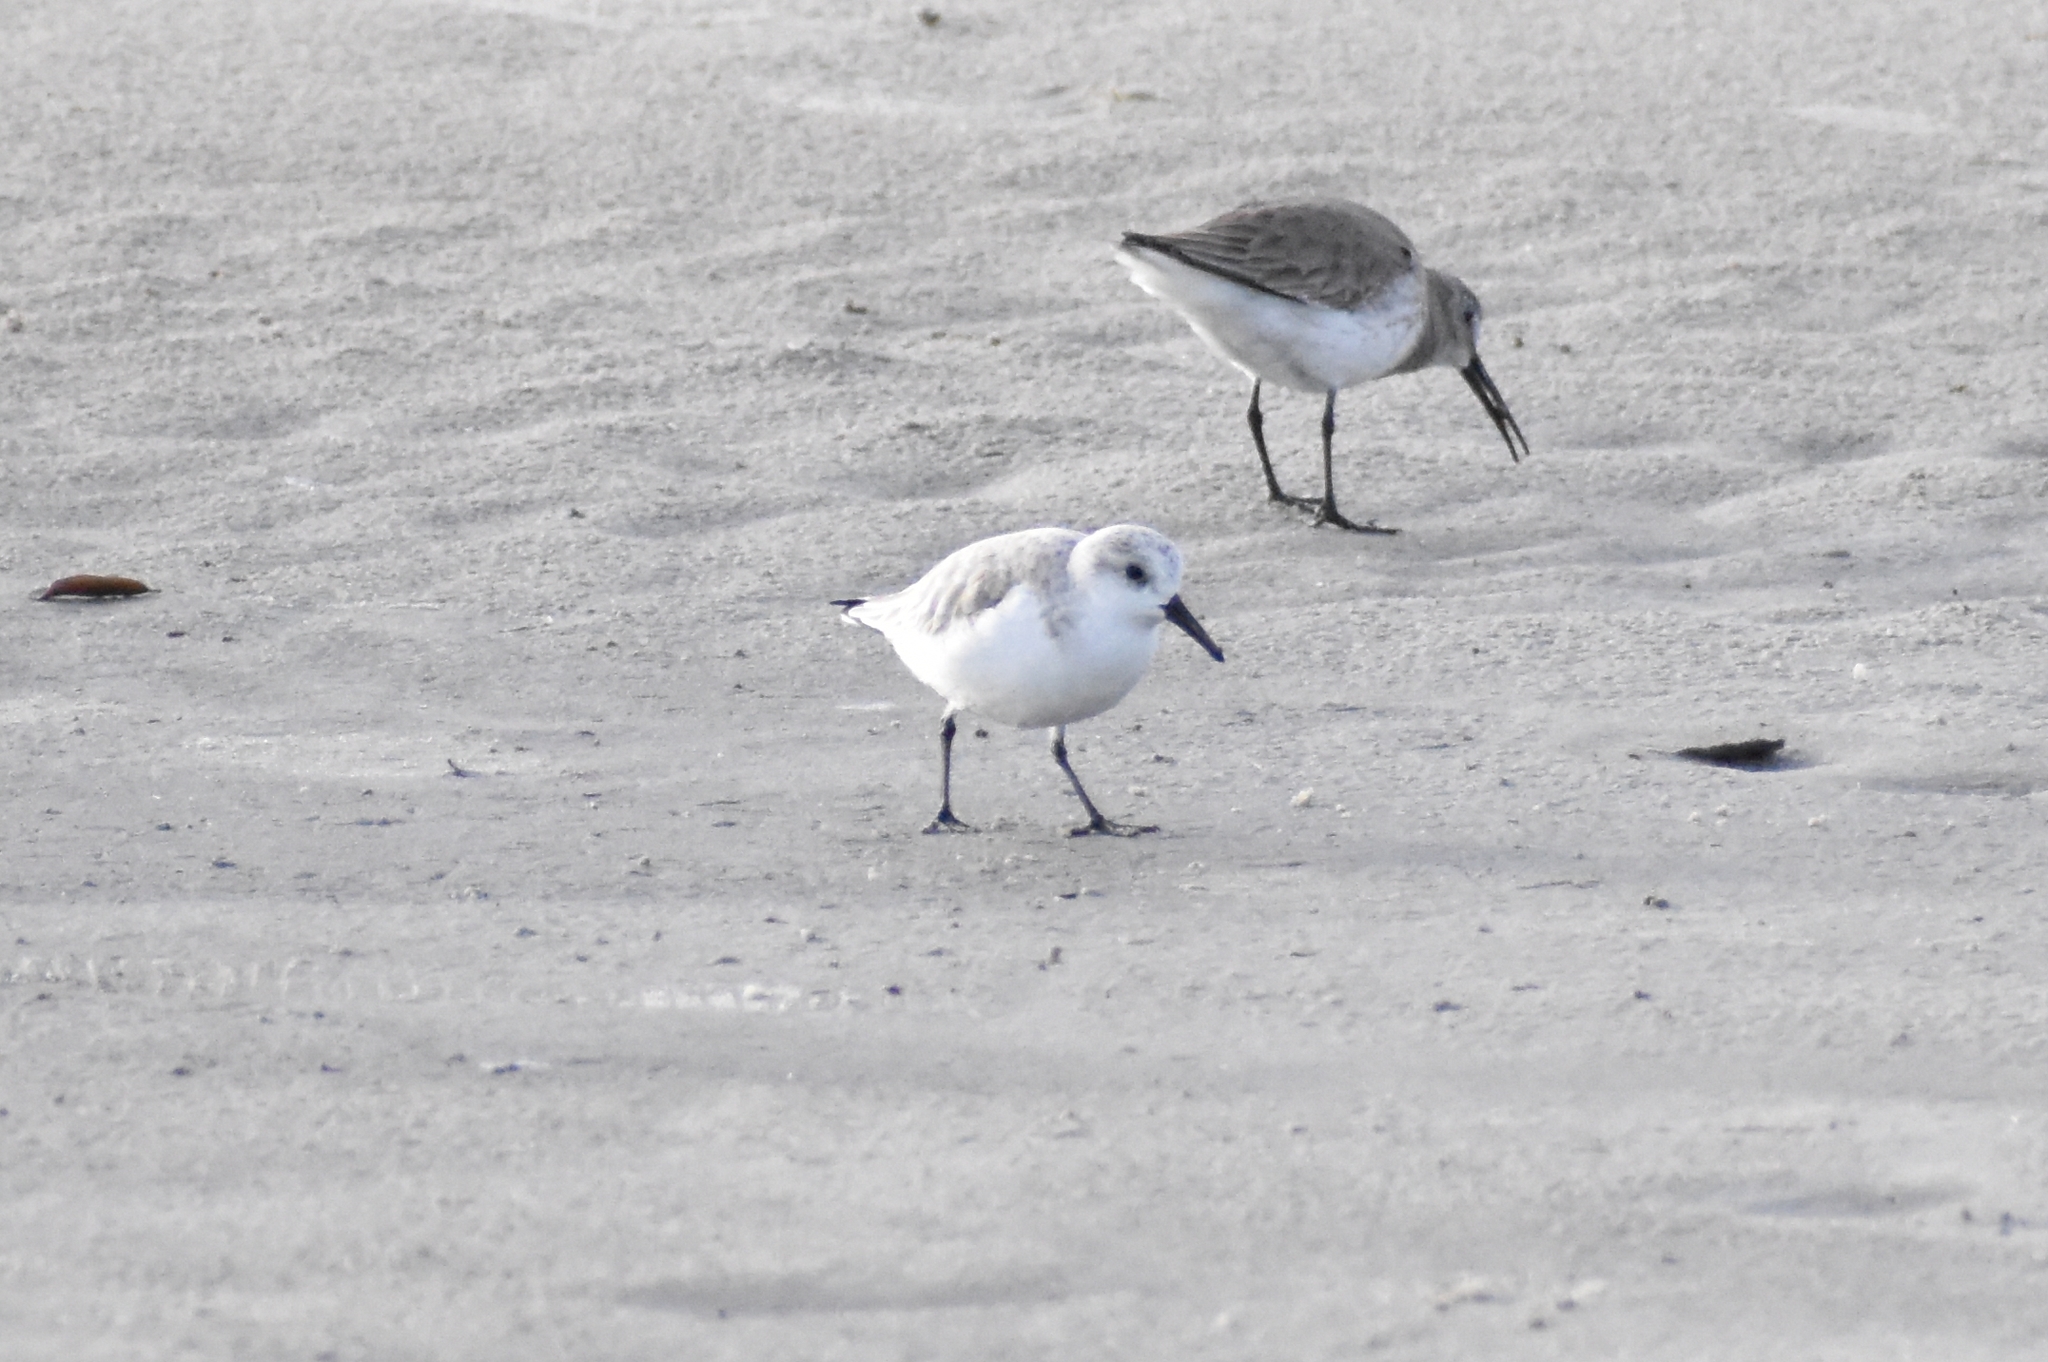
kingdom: Animalia
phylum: Chordata
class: Aves
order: Charadriiformes
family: Scolopacidae
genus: Calidris
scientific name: Calidris alba
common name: Sanderling
